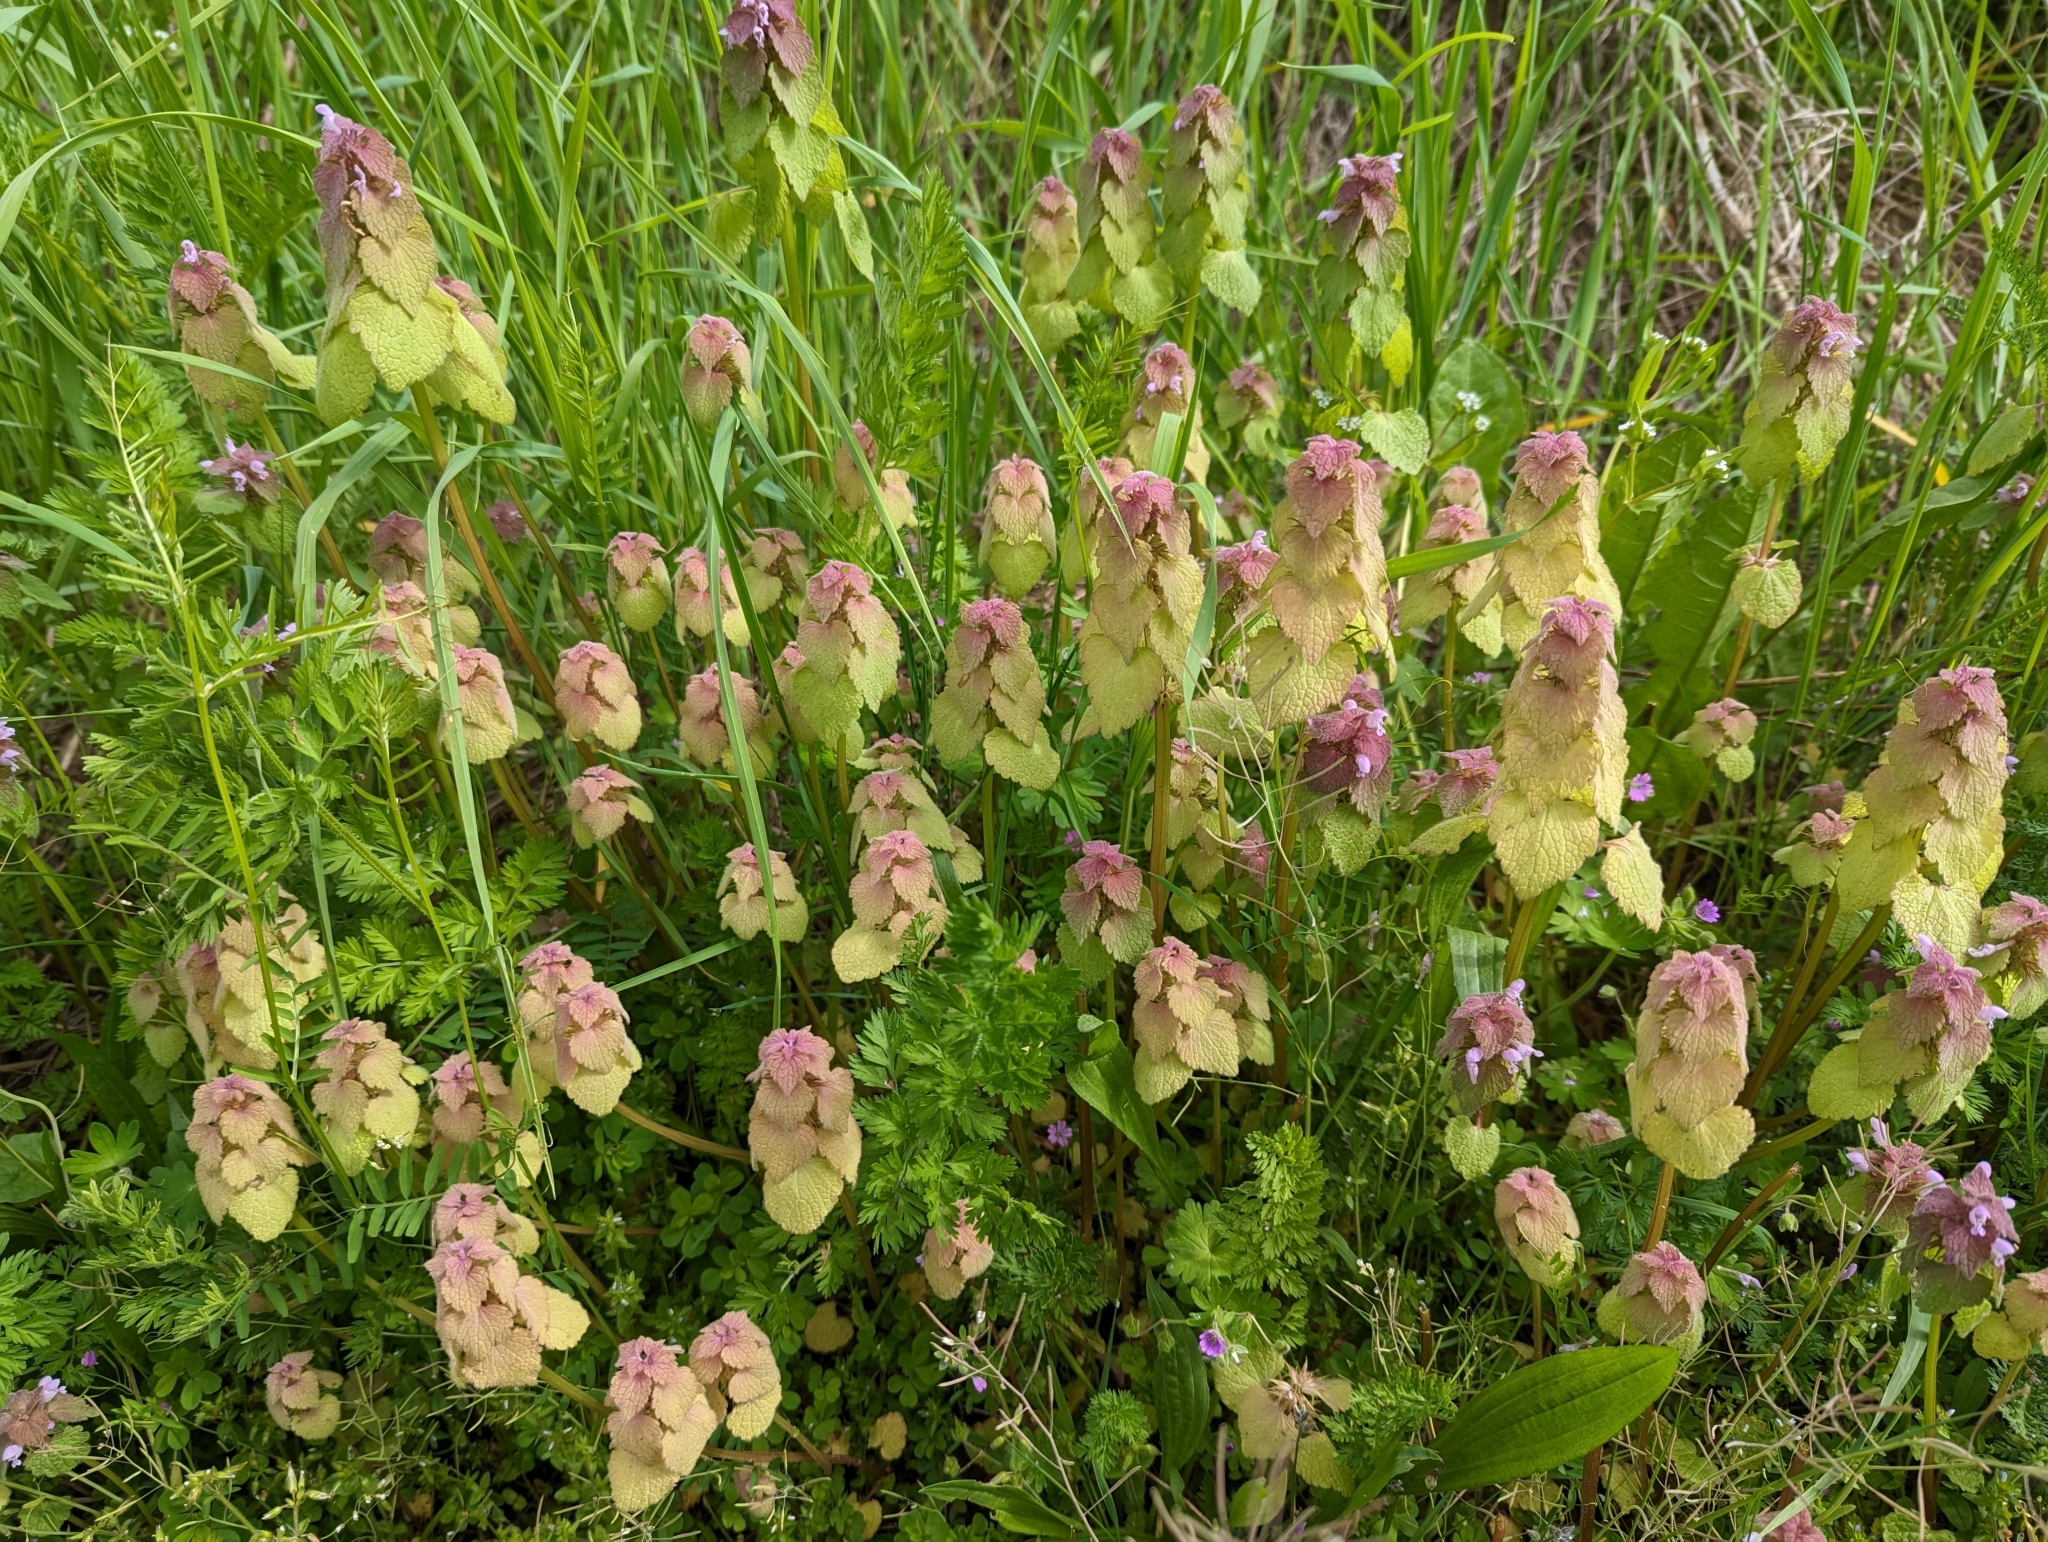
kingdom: Plantae
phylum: Tracheophyta
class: Magnoliopsida
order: Lamiales
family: Lamiaceae
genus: Lamium
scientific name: Lamium purpureum
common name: Red dead-nettle
